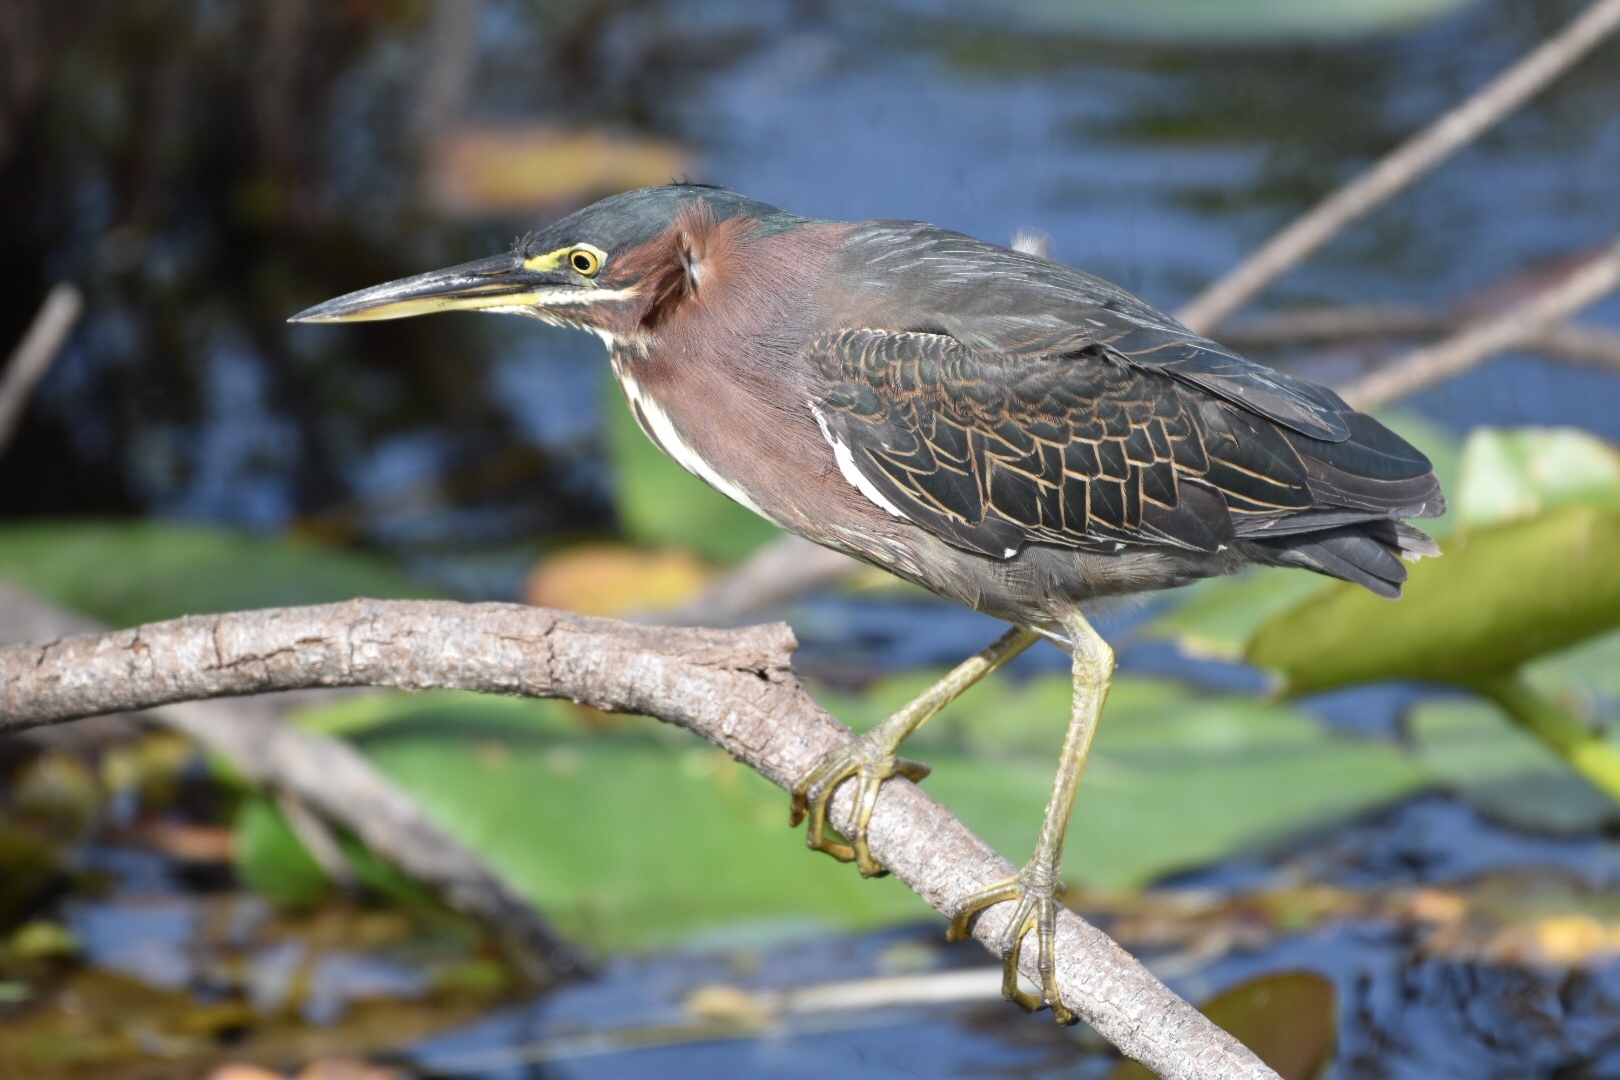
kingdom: Animalia
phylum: Chordata
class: Aves
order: Pelecaniformes
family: Ardeidae
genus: Butorides
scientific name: Butorides virescens
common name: Green heron
